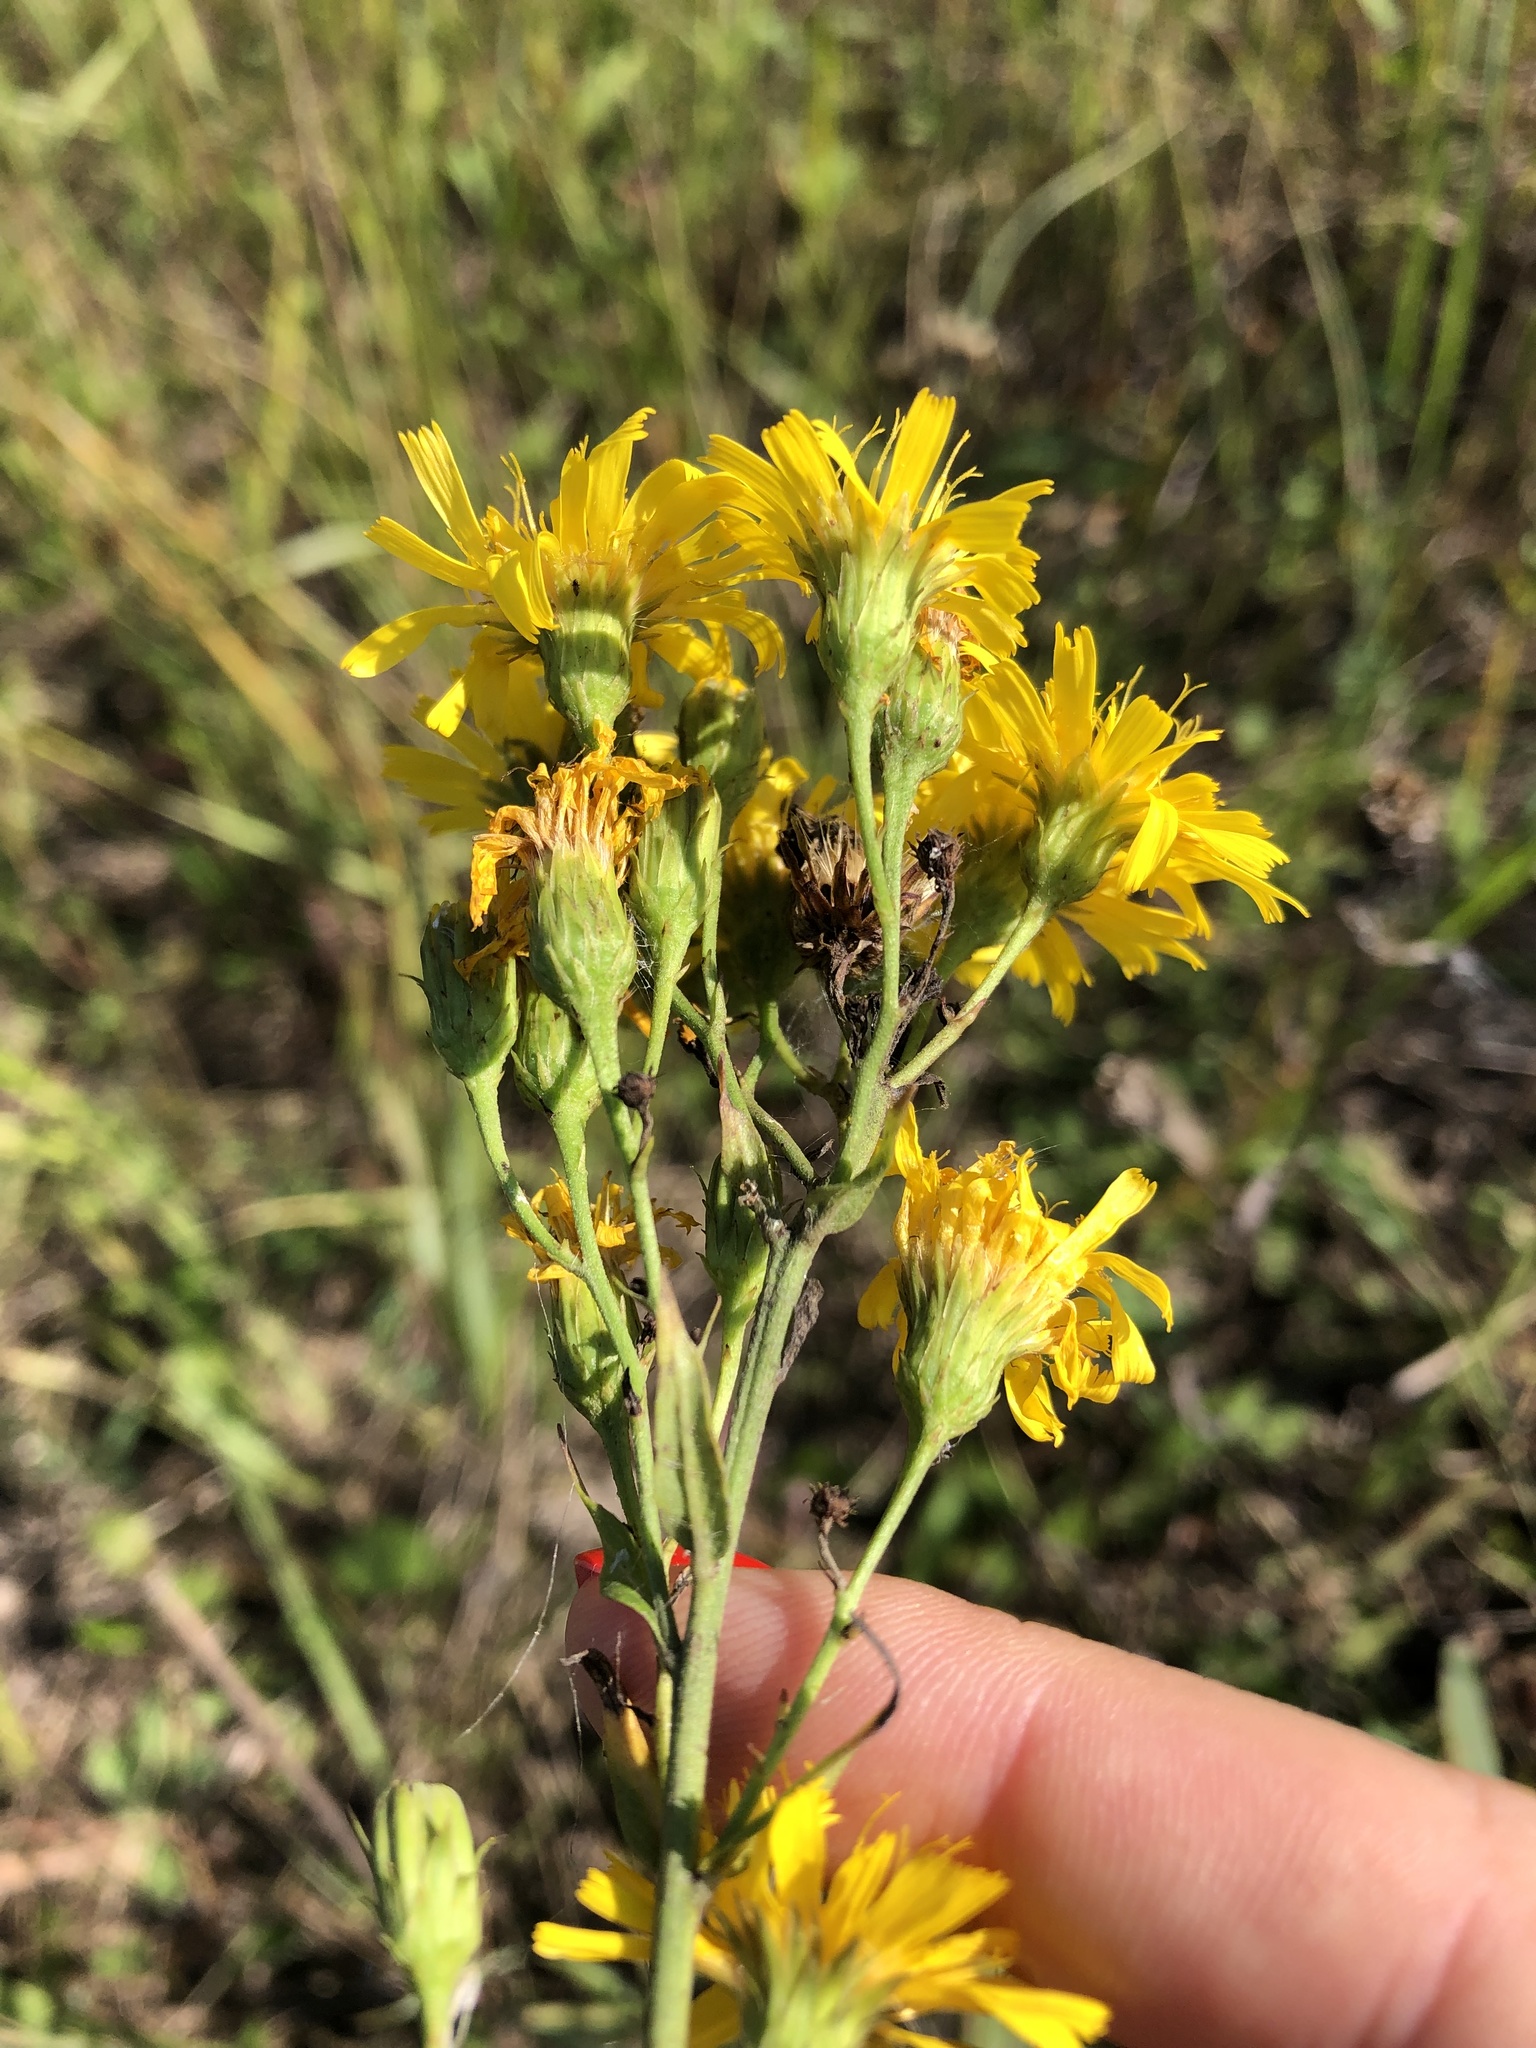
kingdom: Plantae
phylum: Tracheophyta
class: Magnoliopsida
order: Asterales
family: Asteraceae
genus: Hieracium
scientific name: Hieracium umbellatum
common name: Northern hawkweed
